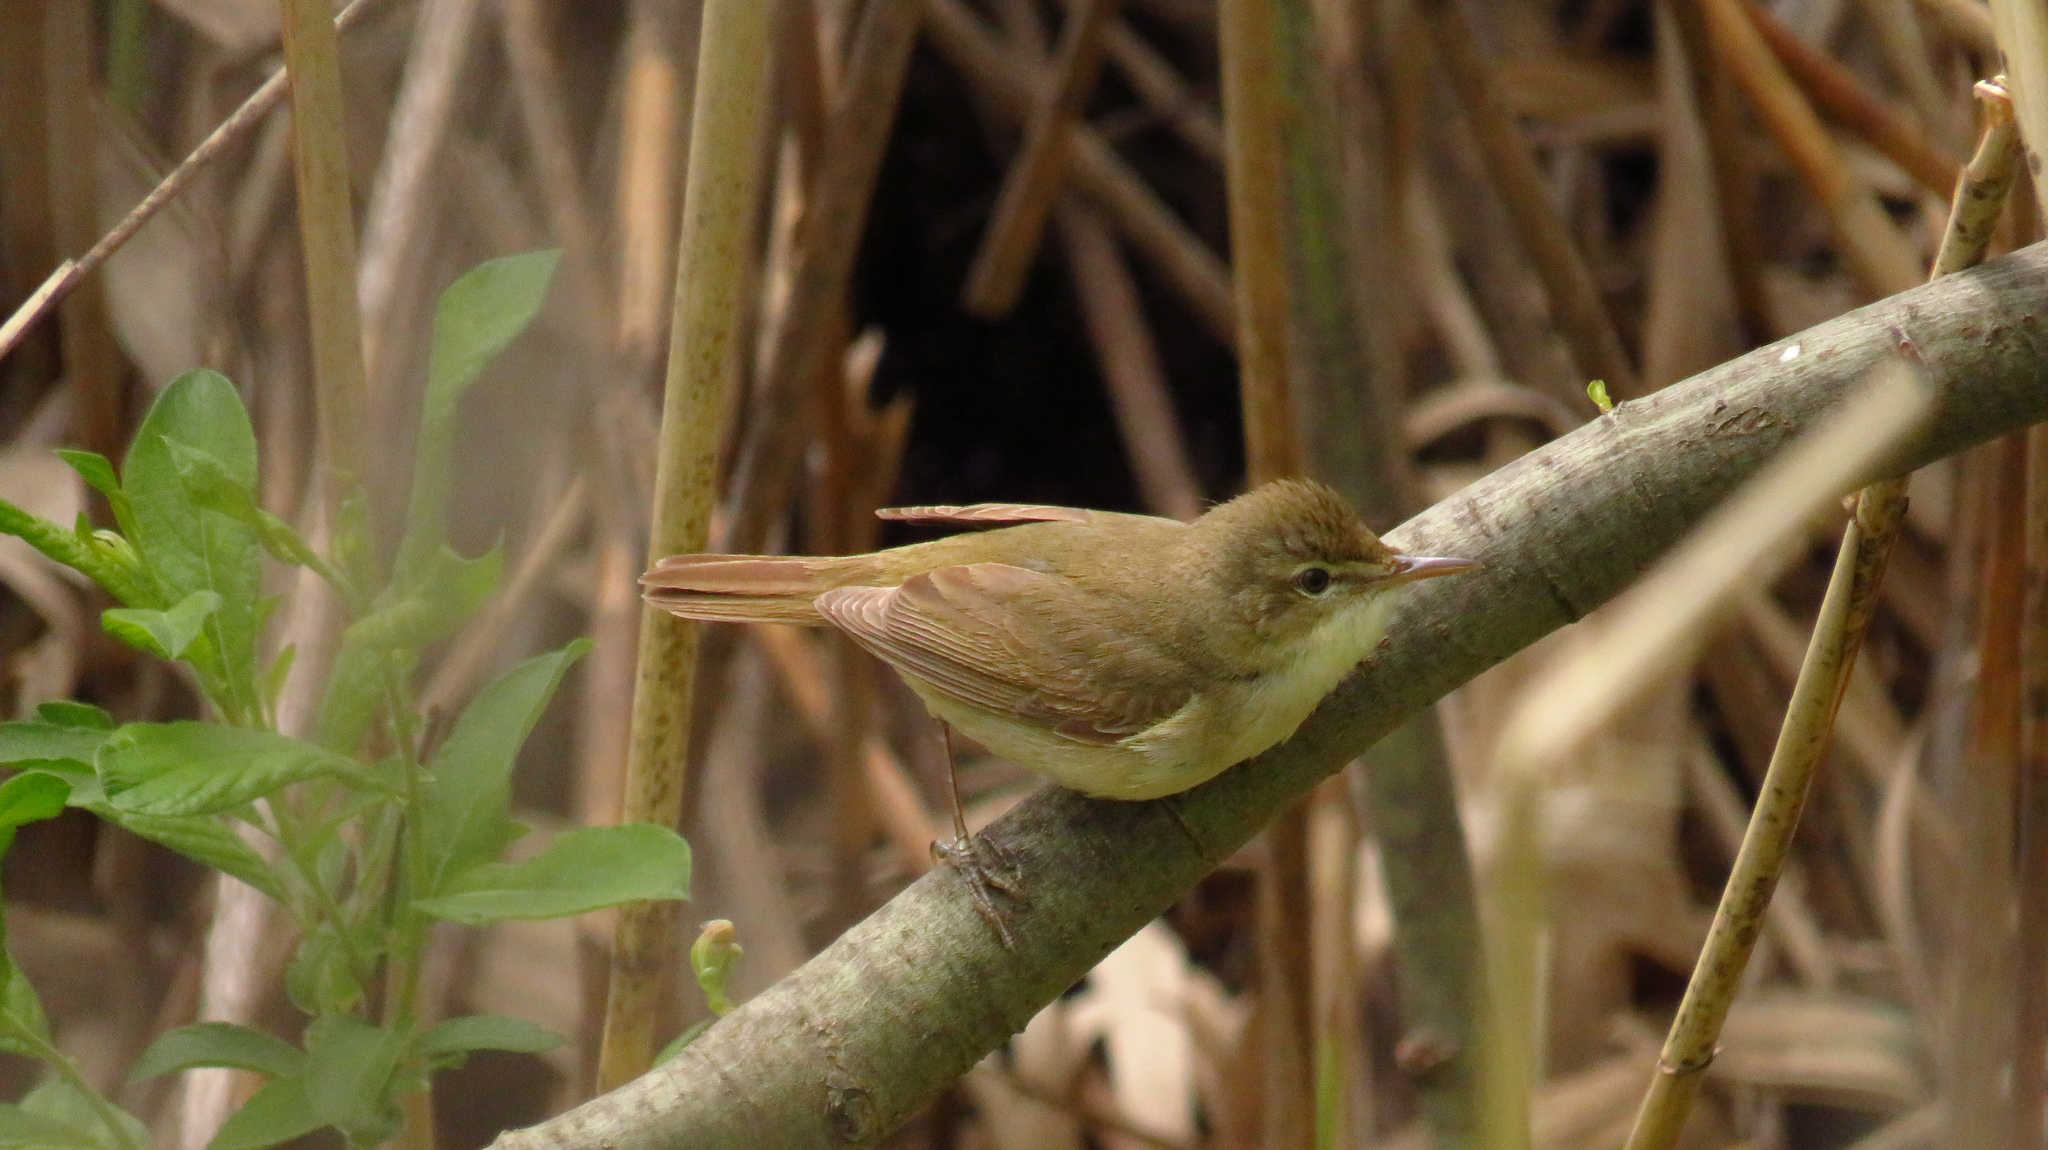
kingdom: Animalia
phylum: Chordata
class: Aves
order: Passeriformes
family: Acrocephalidae
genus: Acrocephalus
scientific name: Acrocephalus dumetorum
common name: Blyth's reed warbler
